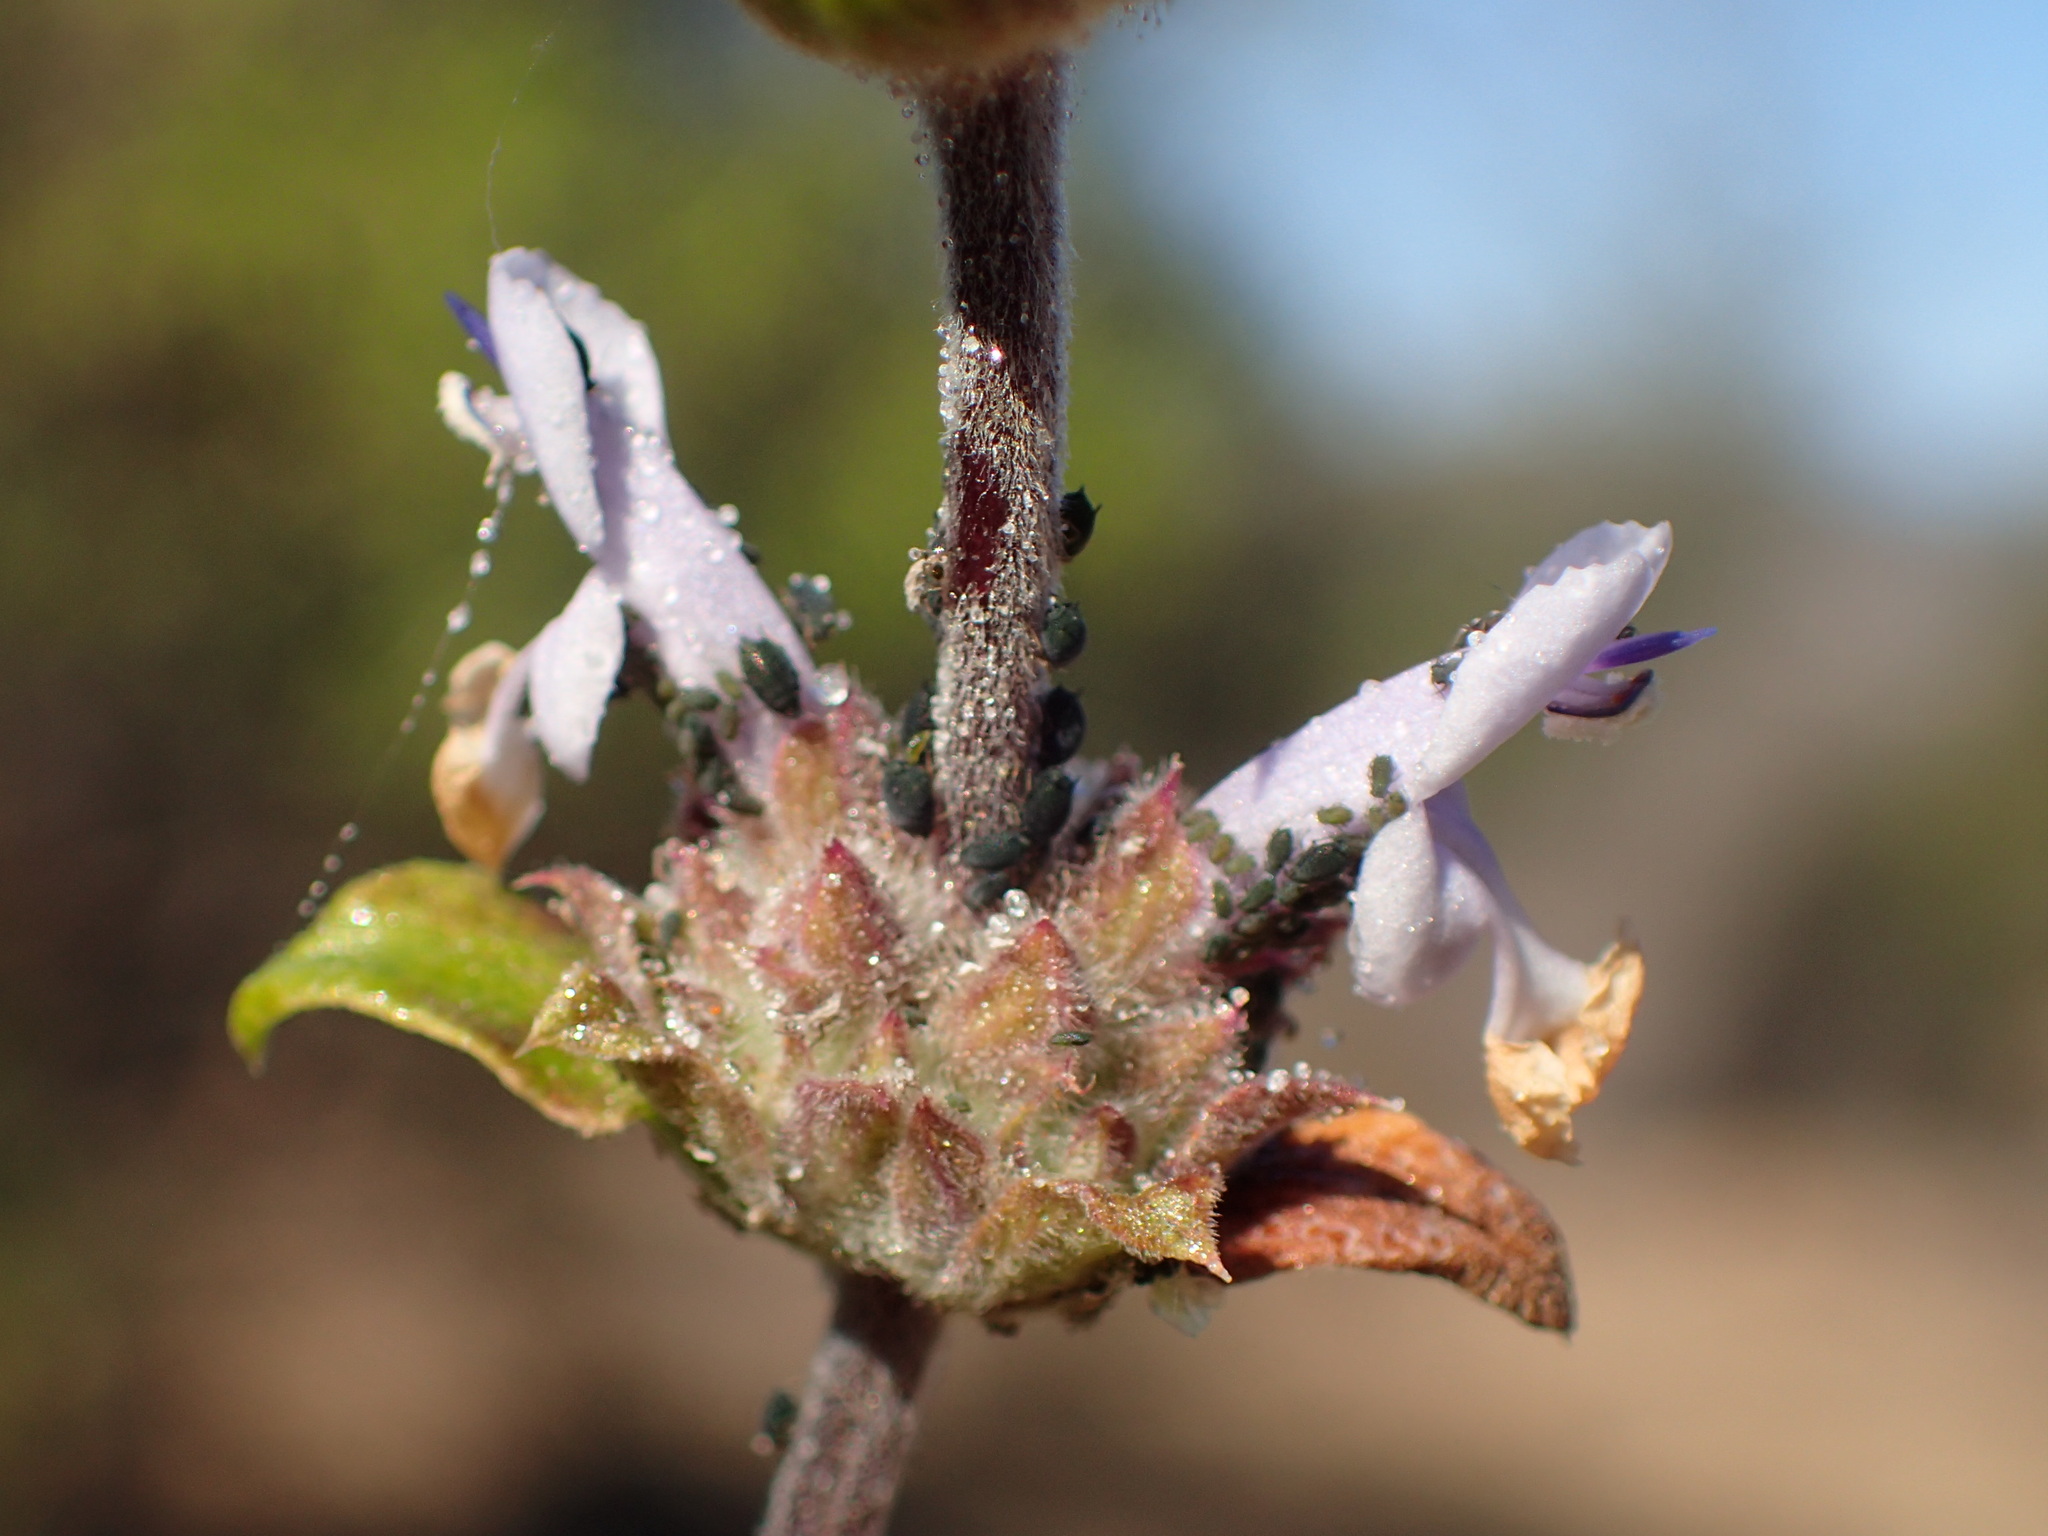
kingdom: Plantae
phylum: Tracheophyta
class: Magnoliopsida
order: Lamiales
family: Lamiaceae
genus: Salvia
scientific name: Salvia mellifera
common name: Black sage
